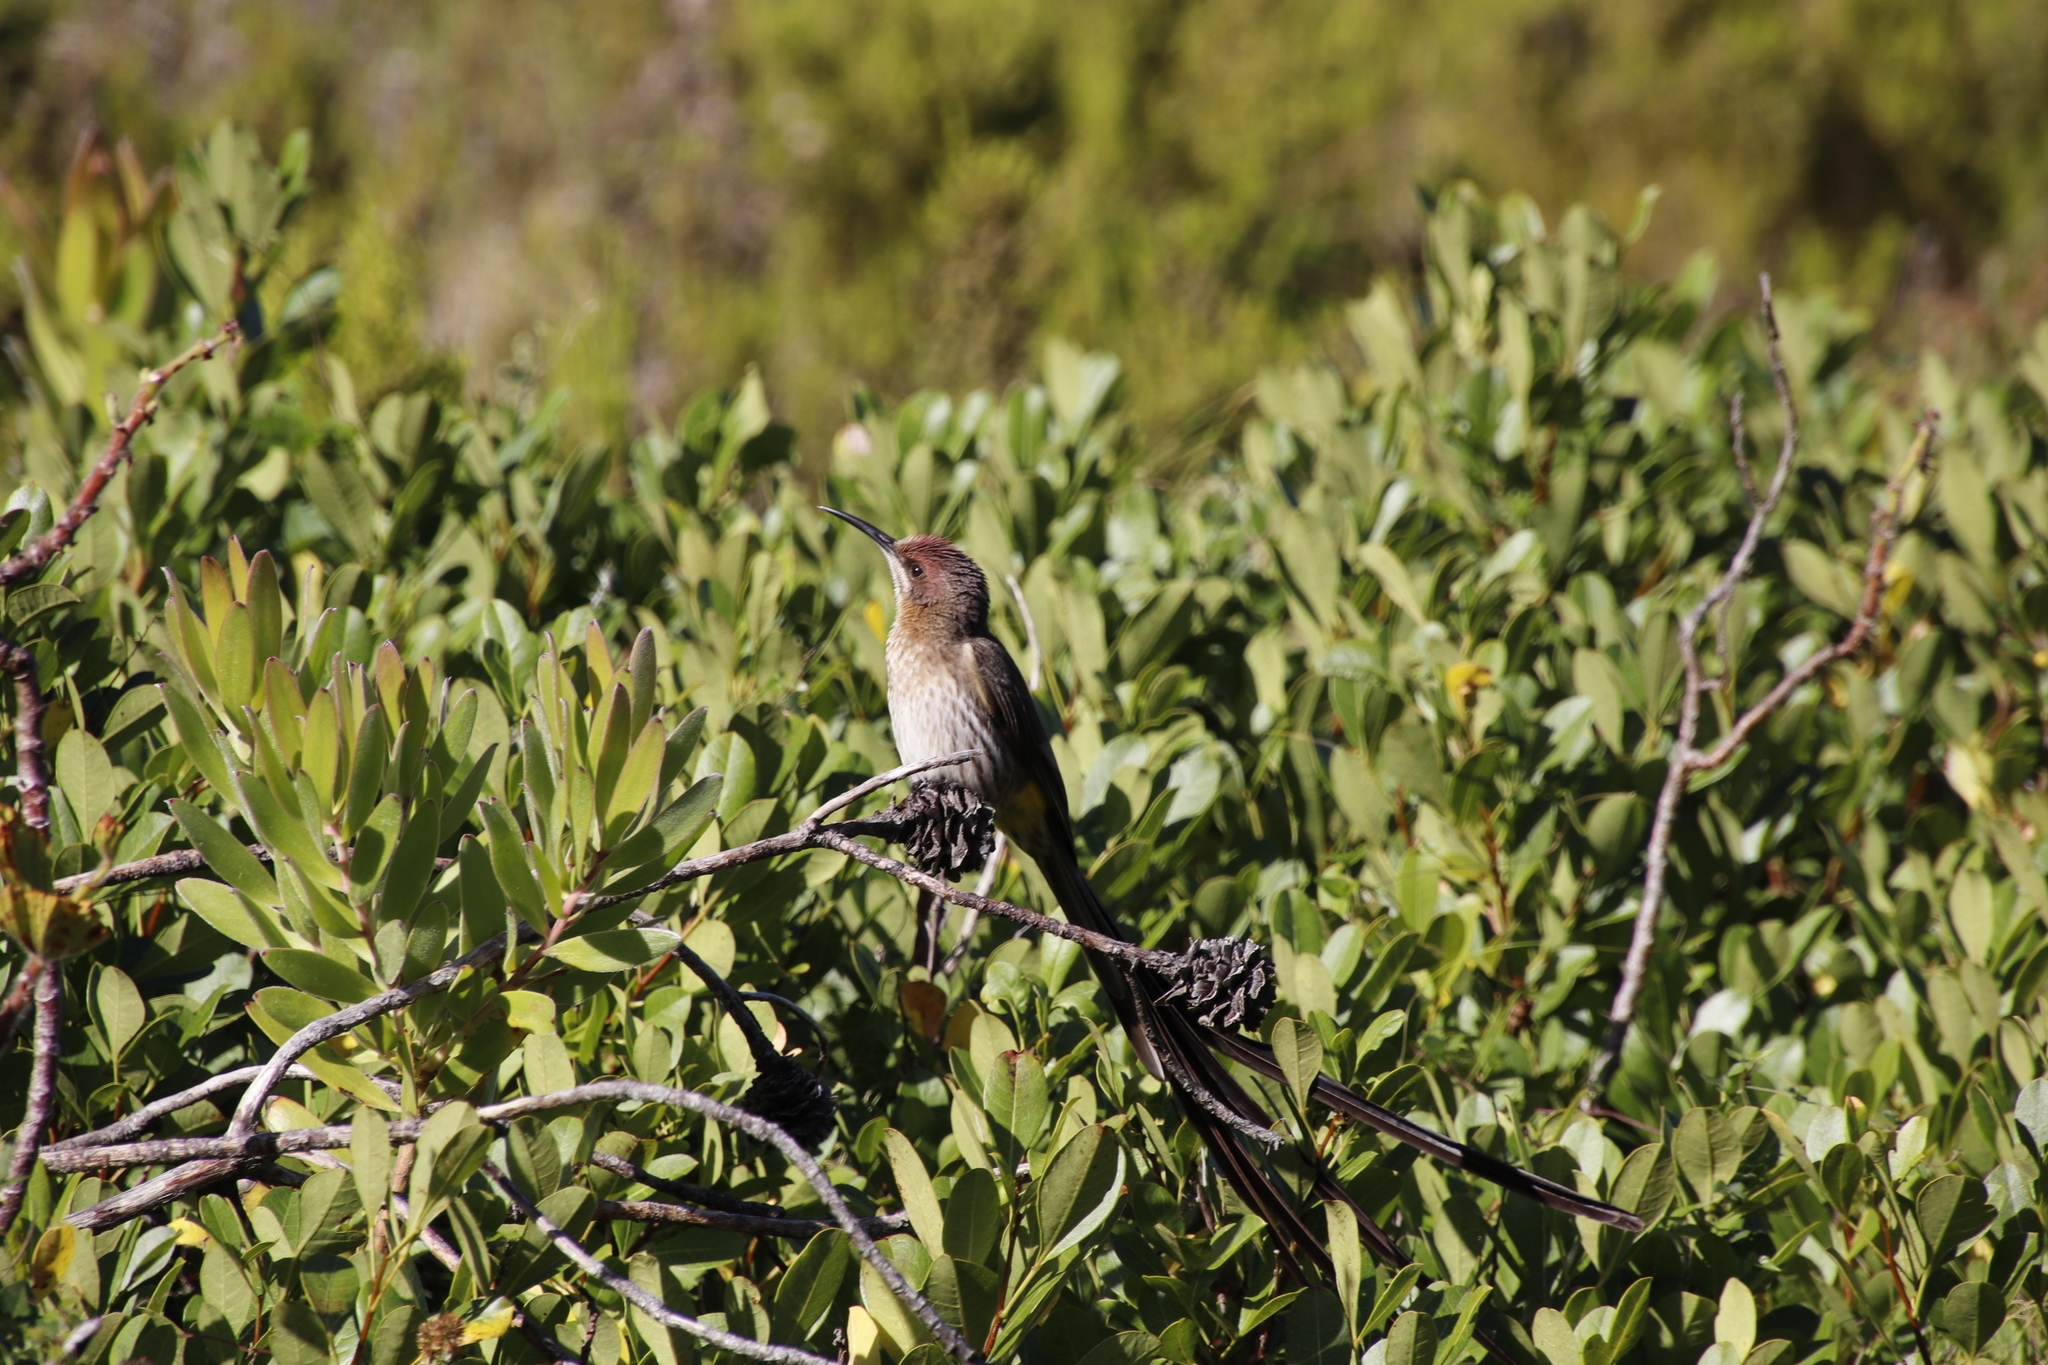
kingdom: Animalia
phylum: Chordata
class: Aves
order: Passeriformes
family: Promeropidae
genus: Promerops
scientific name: Promerops cafer
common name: Cape sugarbird
